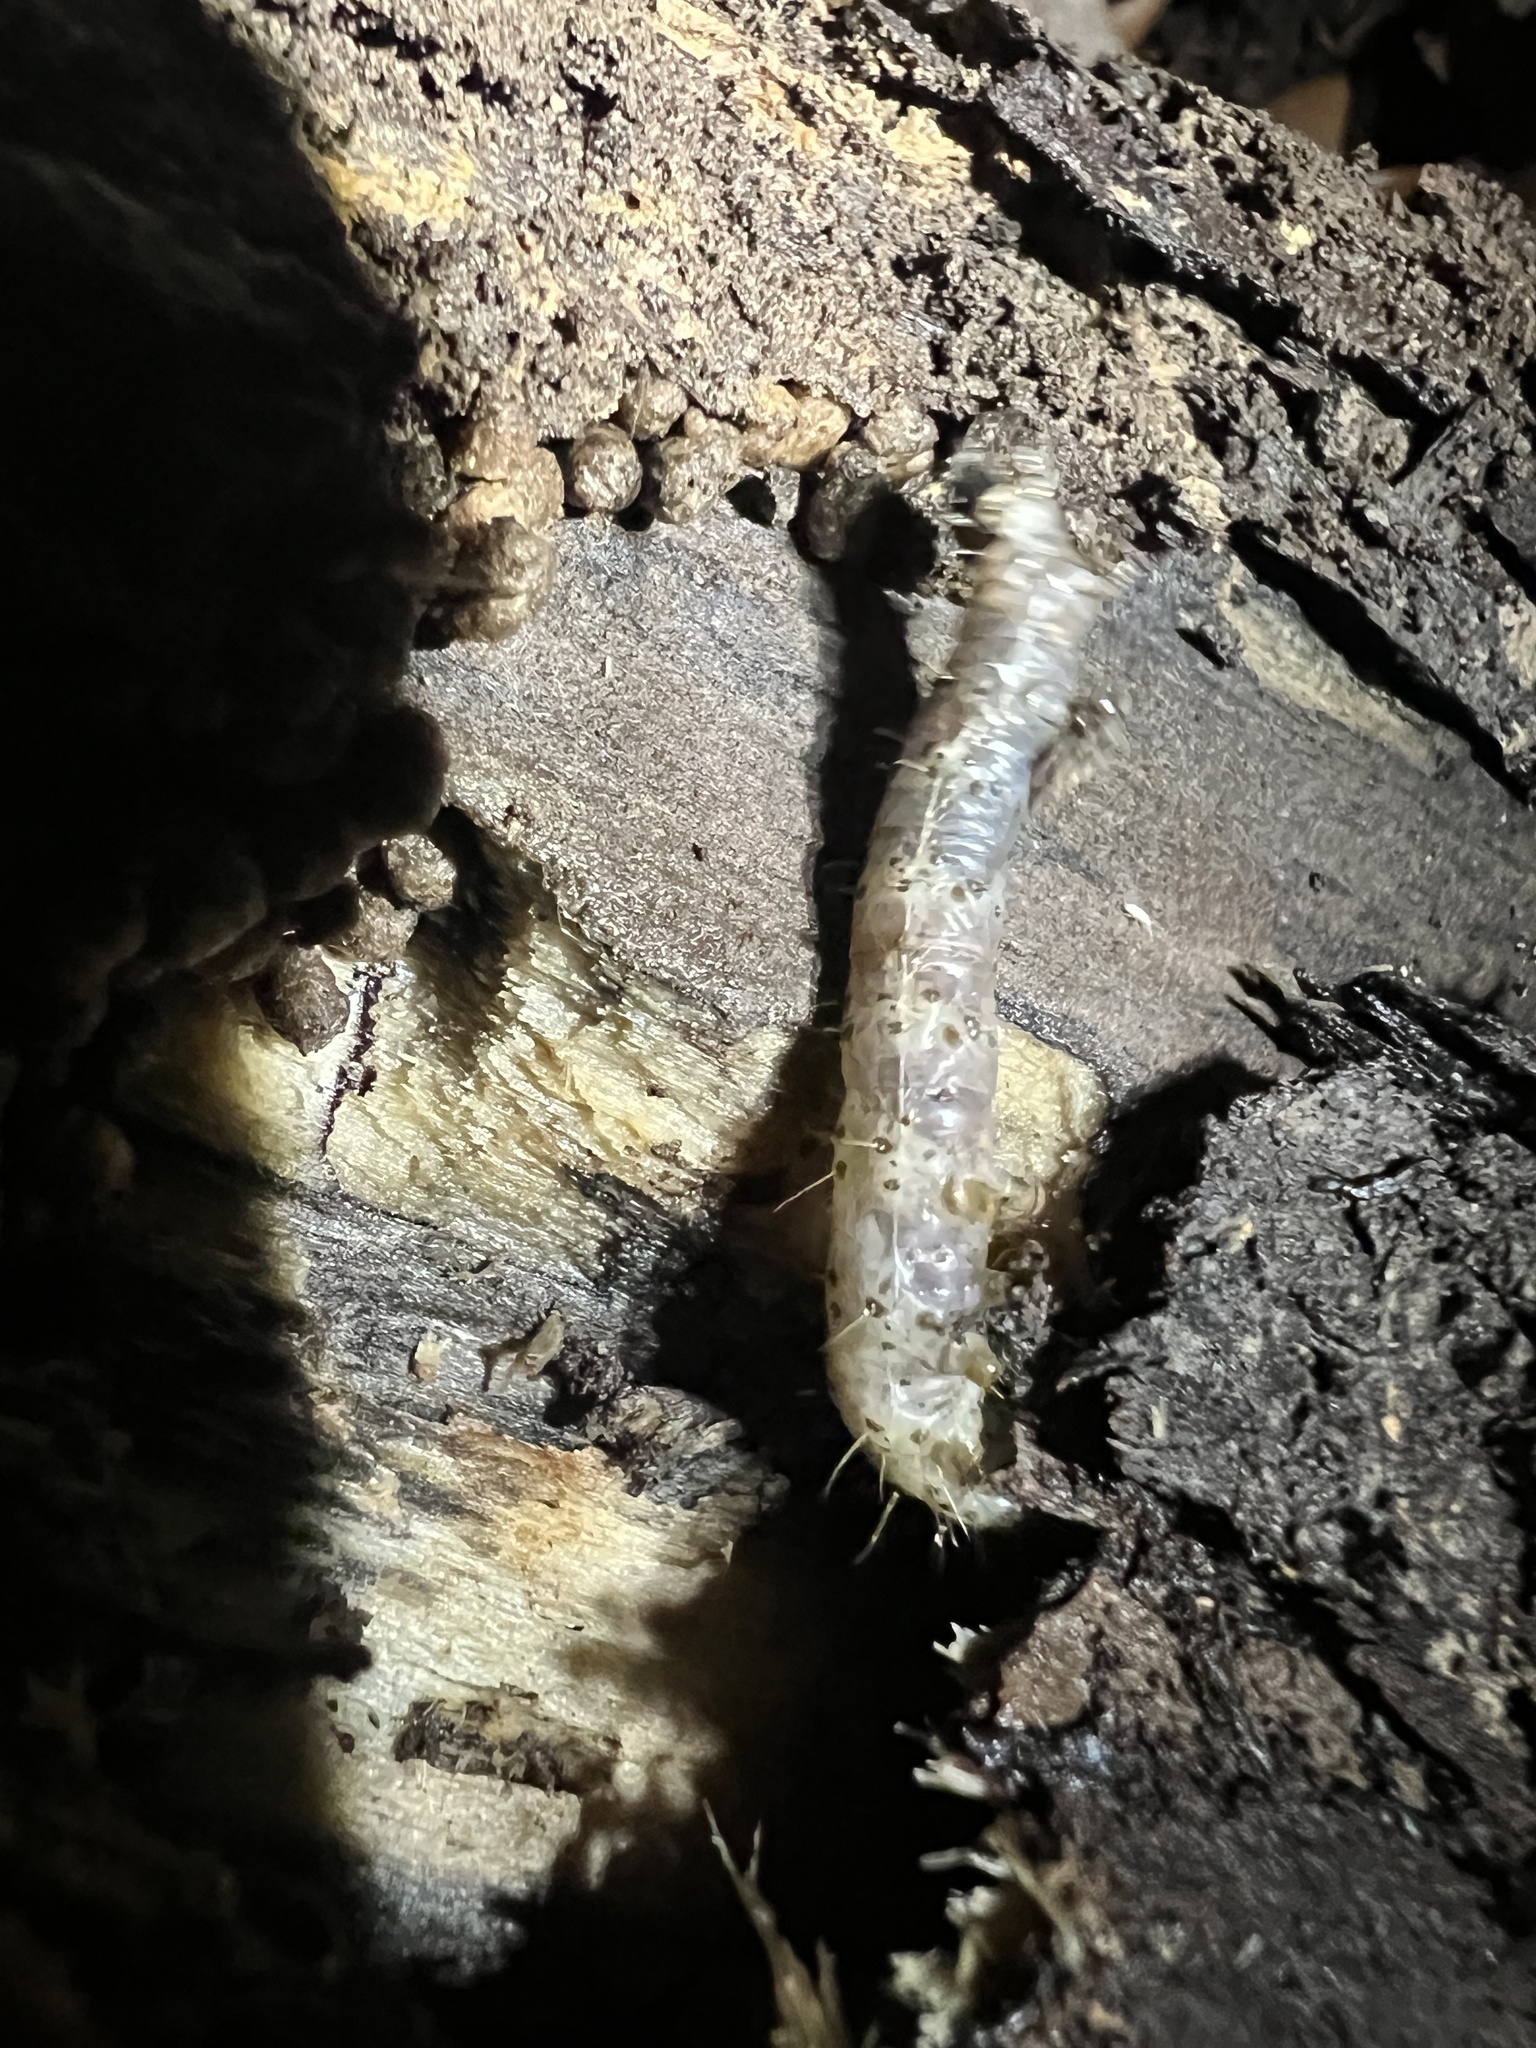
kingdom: Animalia
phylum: Arthropoda
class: Insecta
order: Lepidoptera
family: Erebidae
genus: Scolecocampa
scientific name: Scolecocampa liburna
